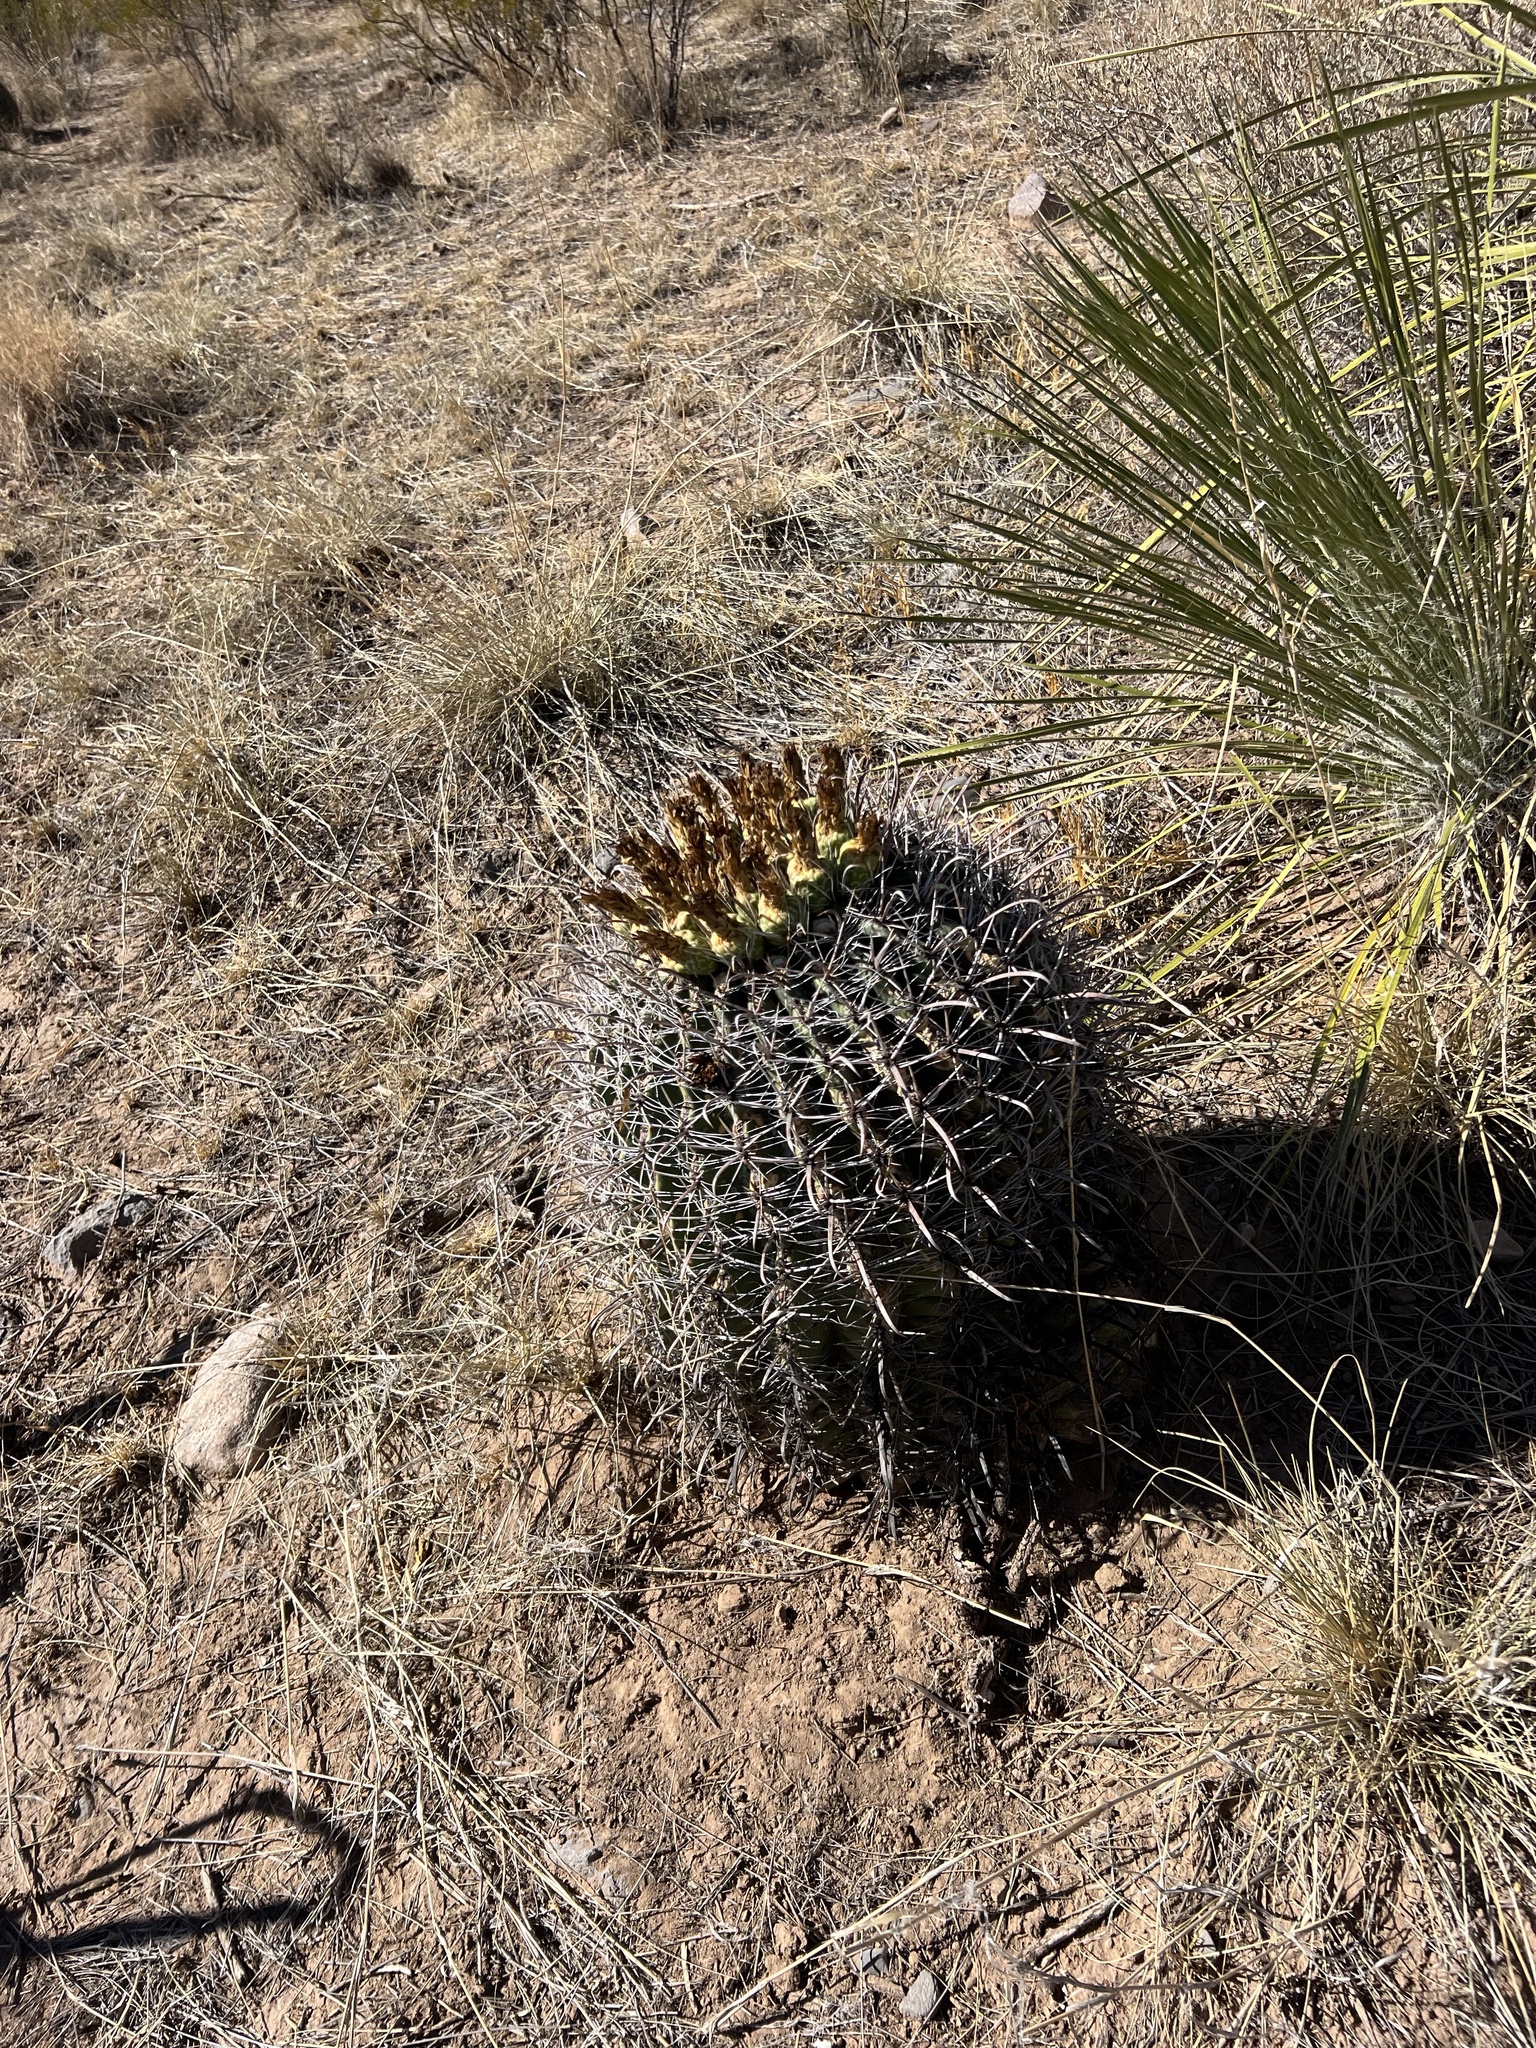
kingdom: Plantae
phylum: Tracheophyta
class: Magnoliopsida
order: Caryophyllales
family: Cactaceae
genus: Ferocactus
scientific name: Ferocactus wislizeni
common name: Candy barrel cactus
